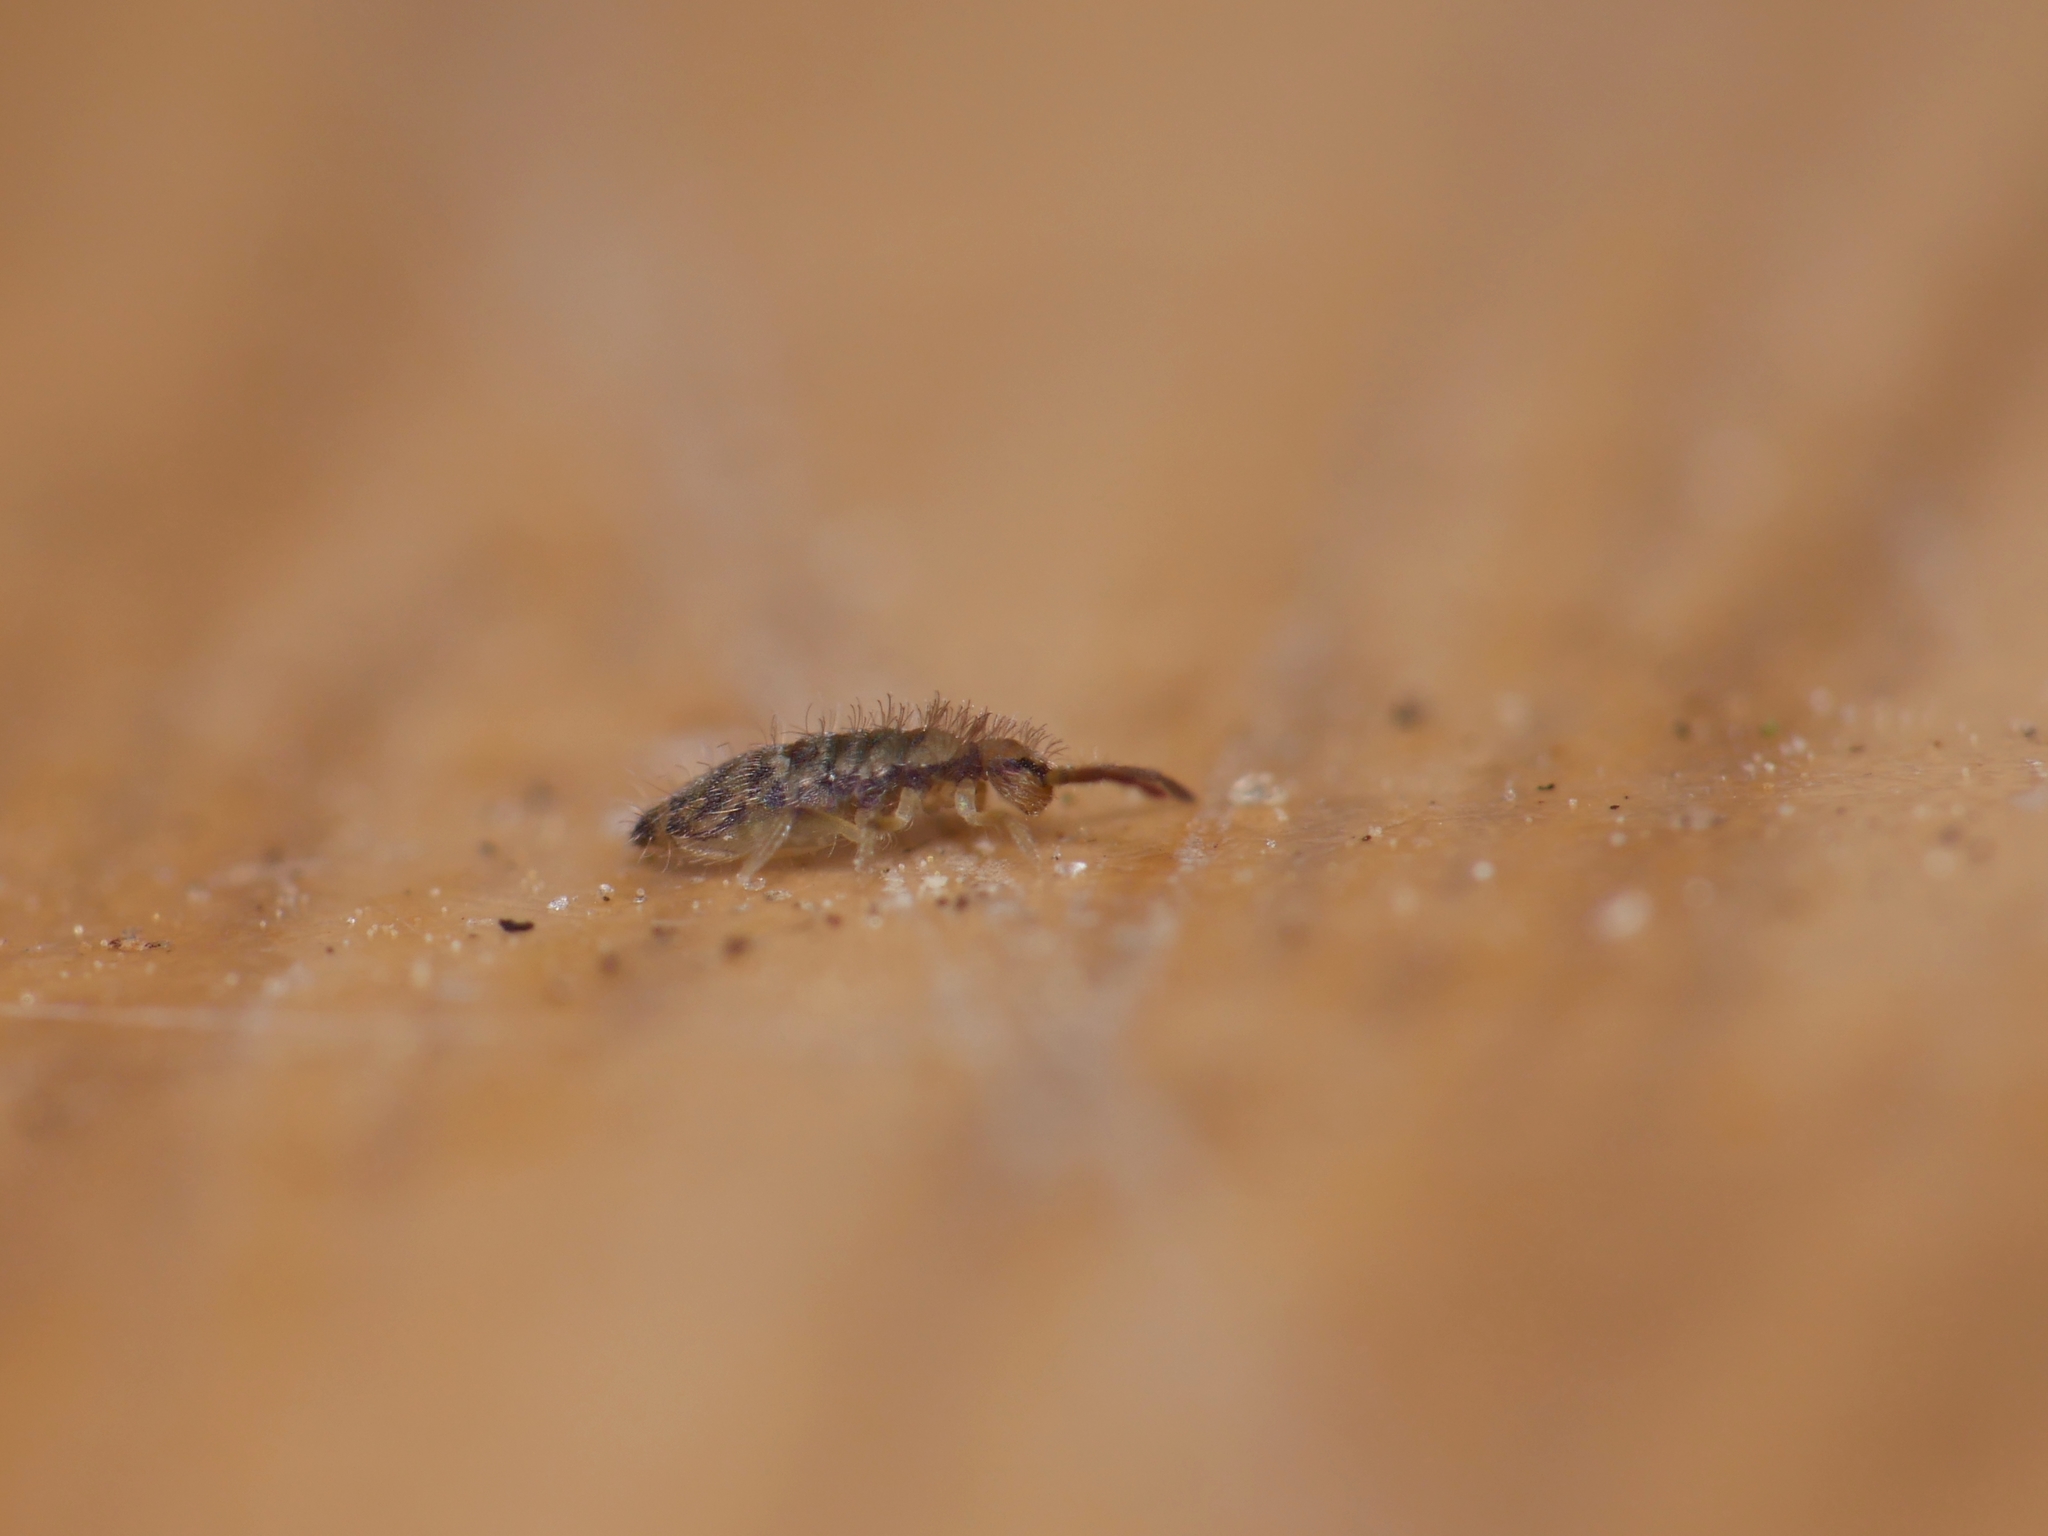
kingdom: Animalia
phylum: Arthropoda
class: Collembola
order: Entomobryomorpha
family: Entomobryidae
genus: Entomobrya
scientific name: Entomobrya multifasciata
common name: Springtail
